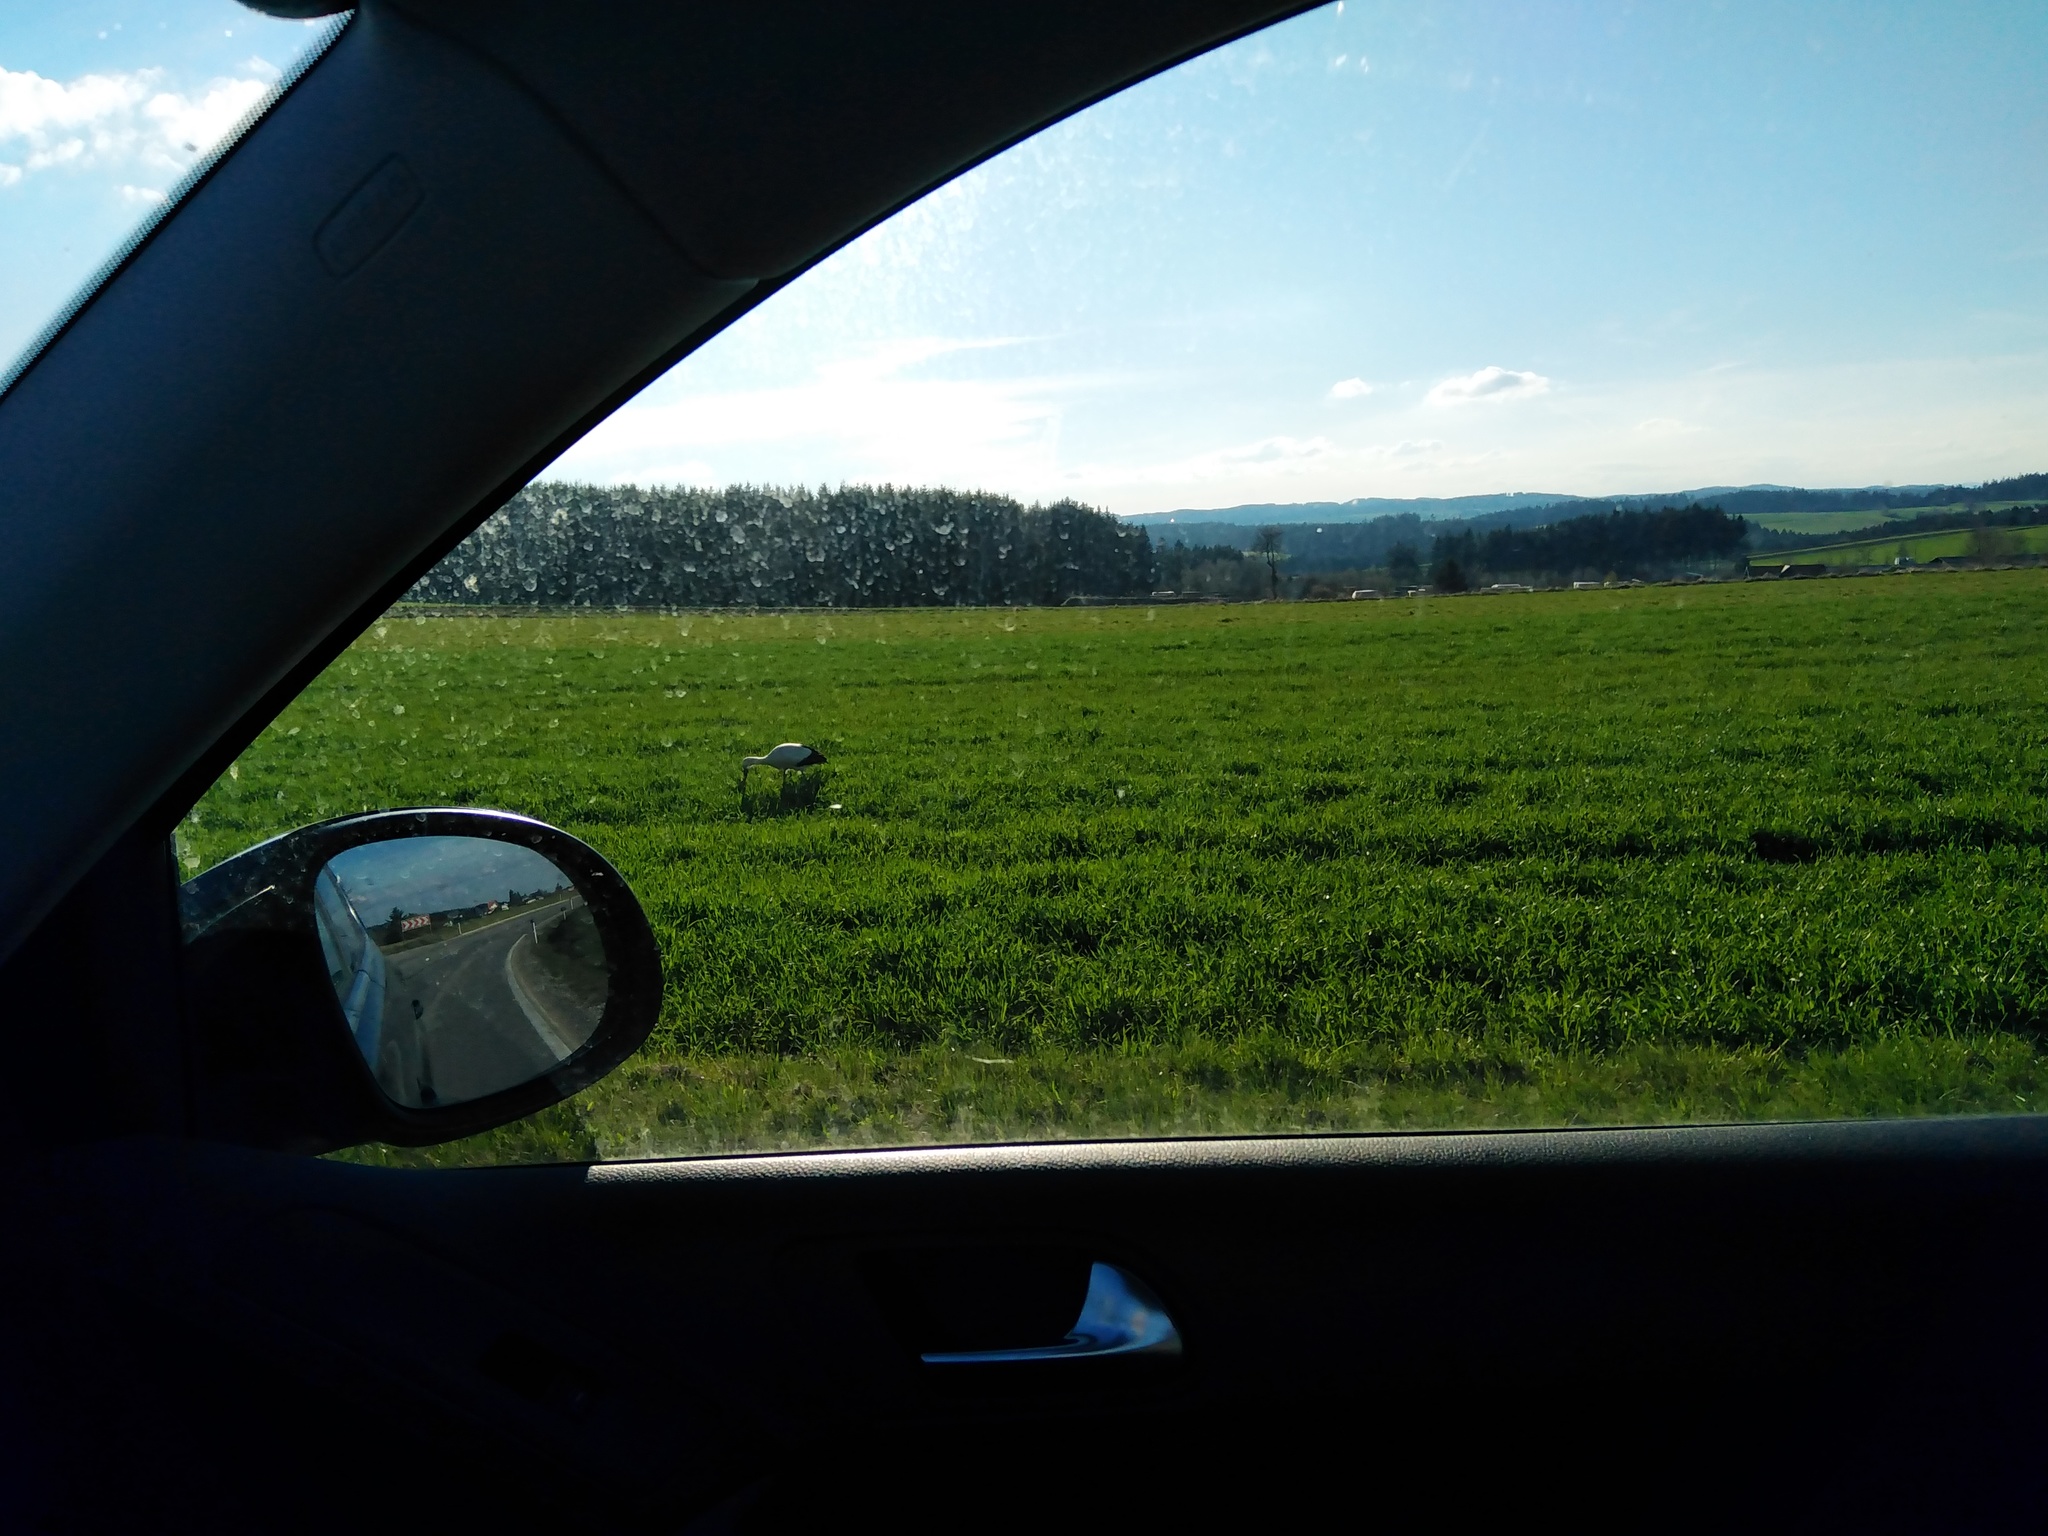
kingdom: Animalia
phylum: Chordata
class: Aves
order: Ciconiiformes
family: Ciconiidae
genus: Ciconia
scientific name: Ciconia ciconia
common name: White stork
